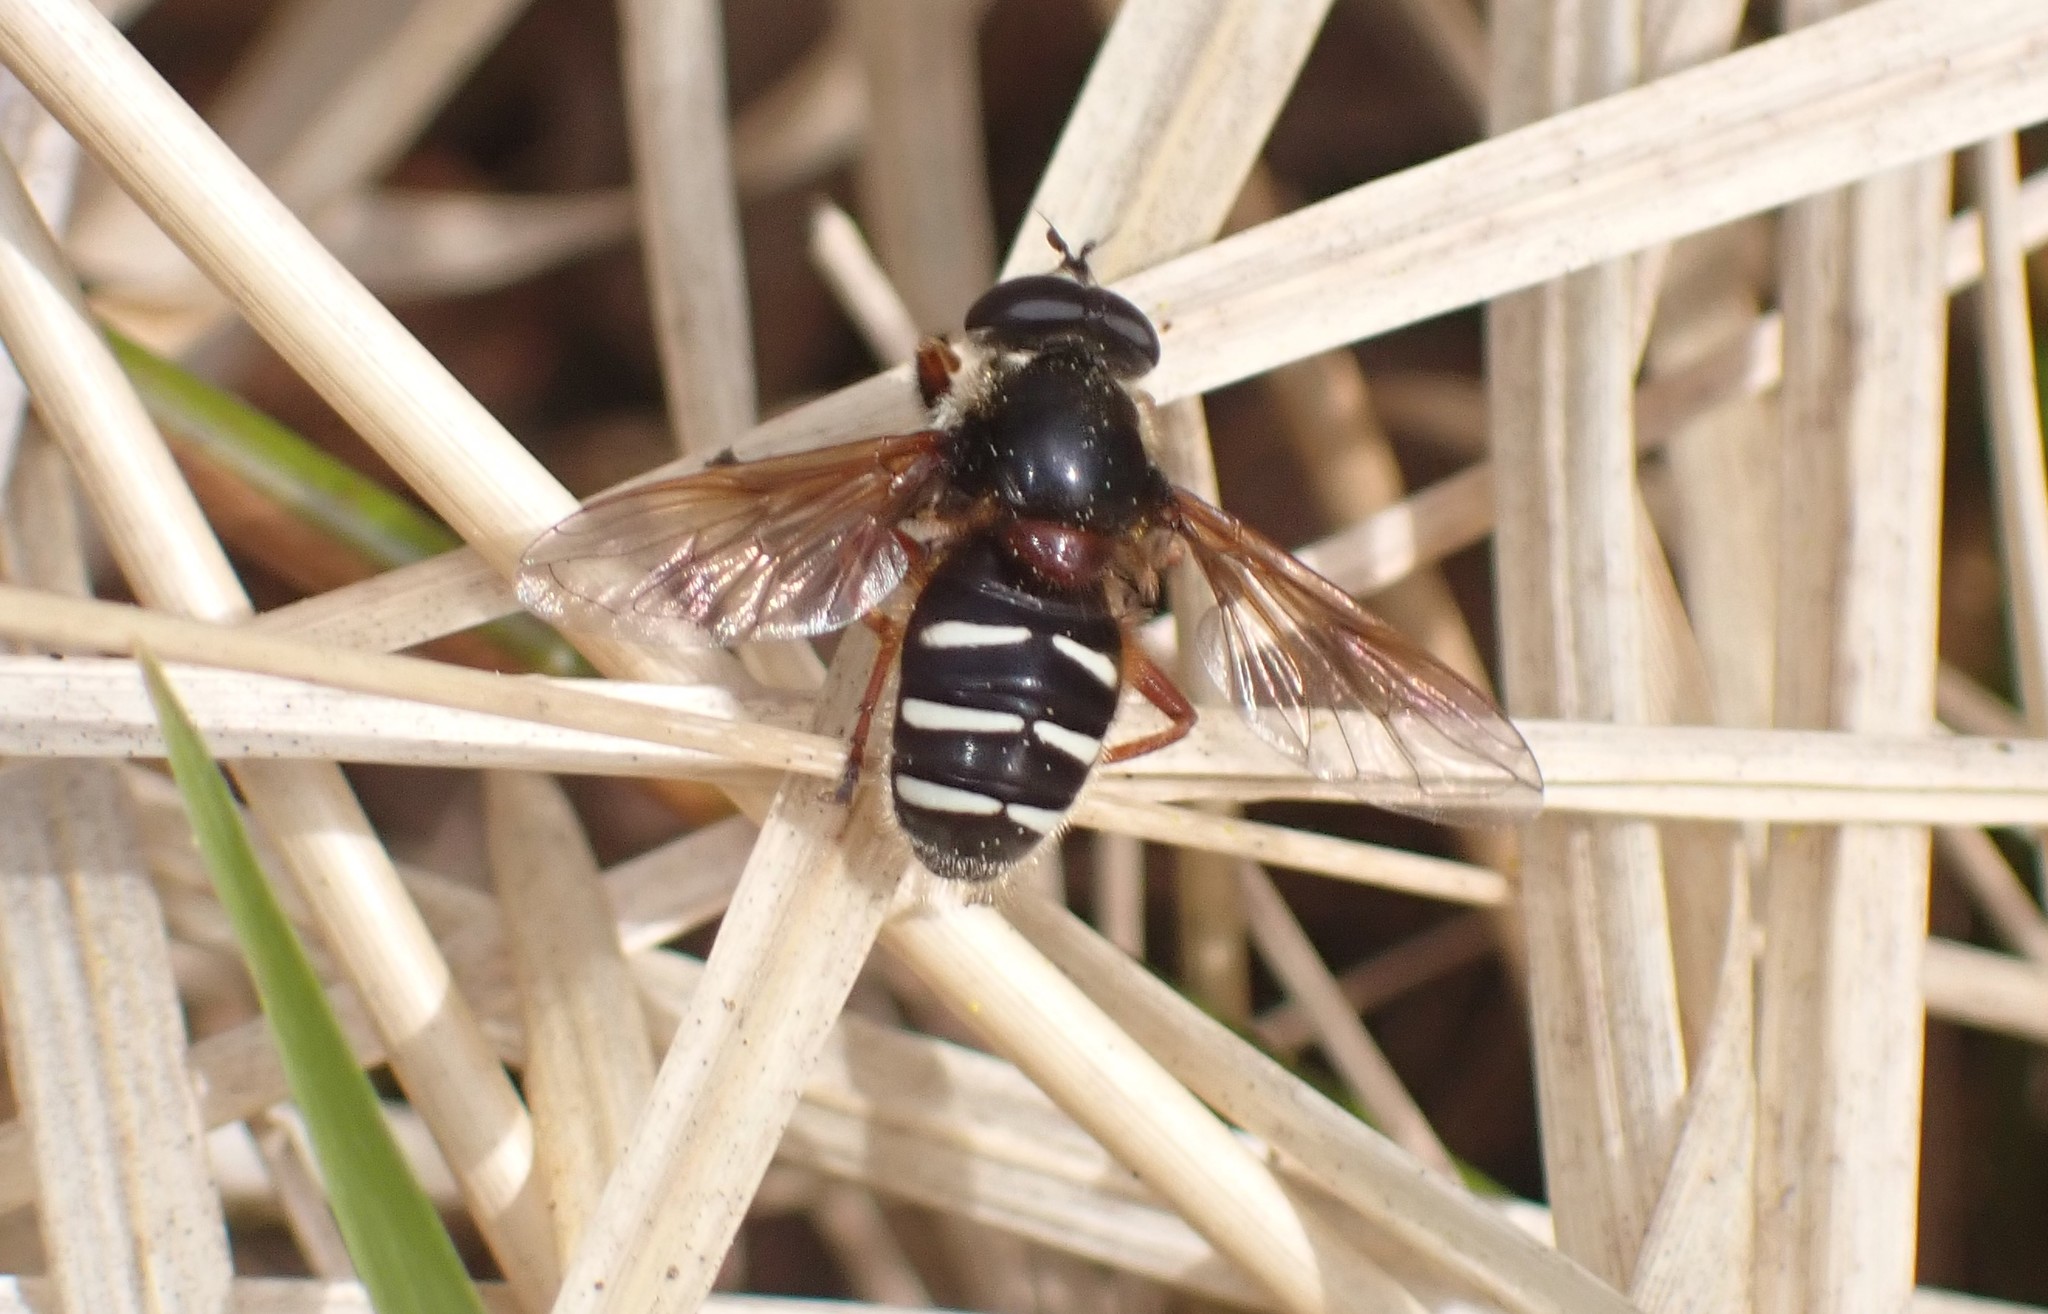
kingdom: Animalia
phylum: Arthropoda
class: Insecta
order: Diptera
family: Syrphidae
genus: Sericomyia
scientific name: Sericomyia lappona
